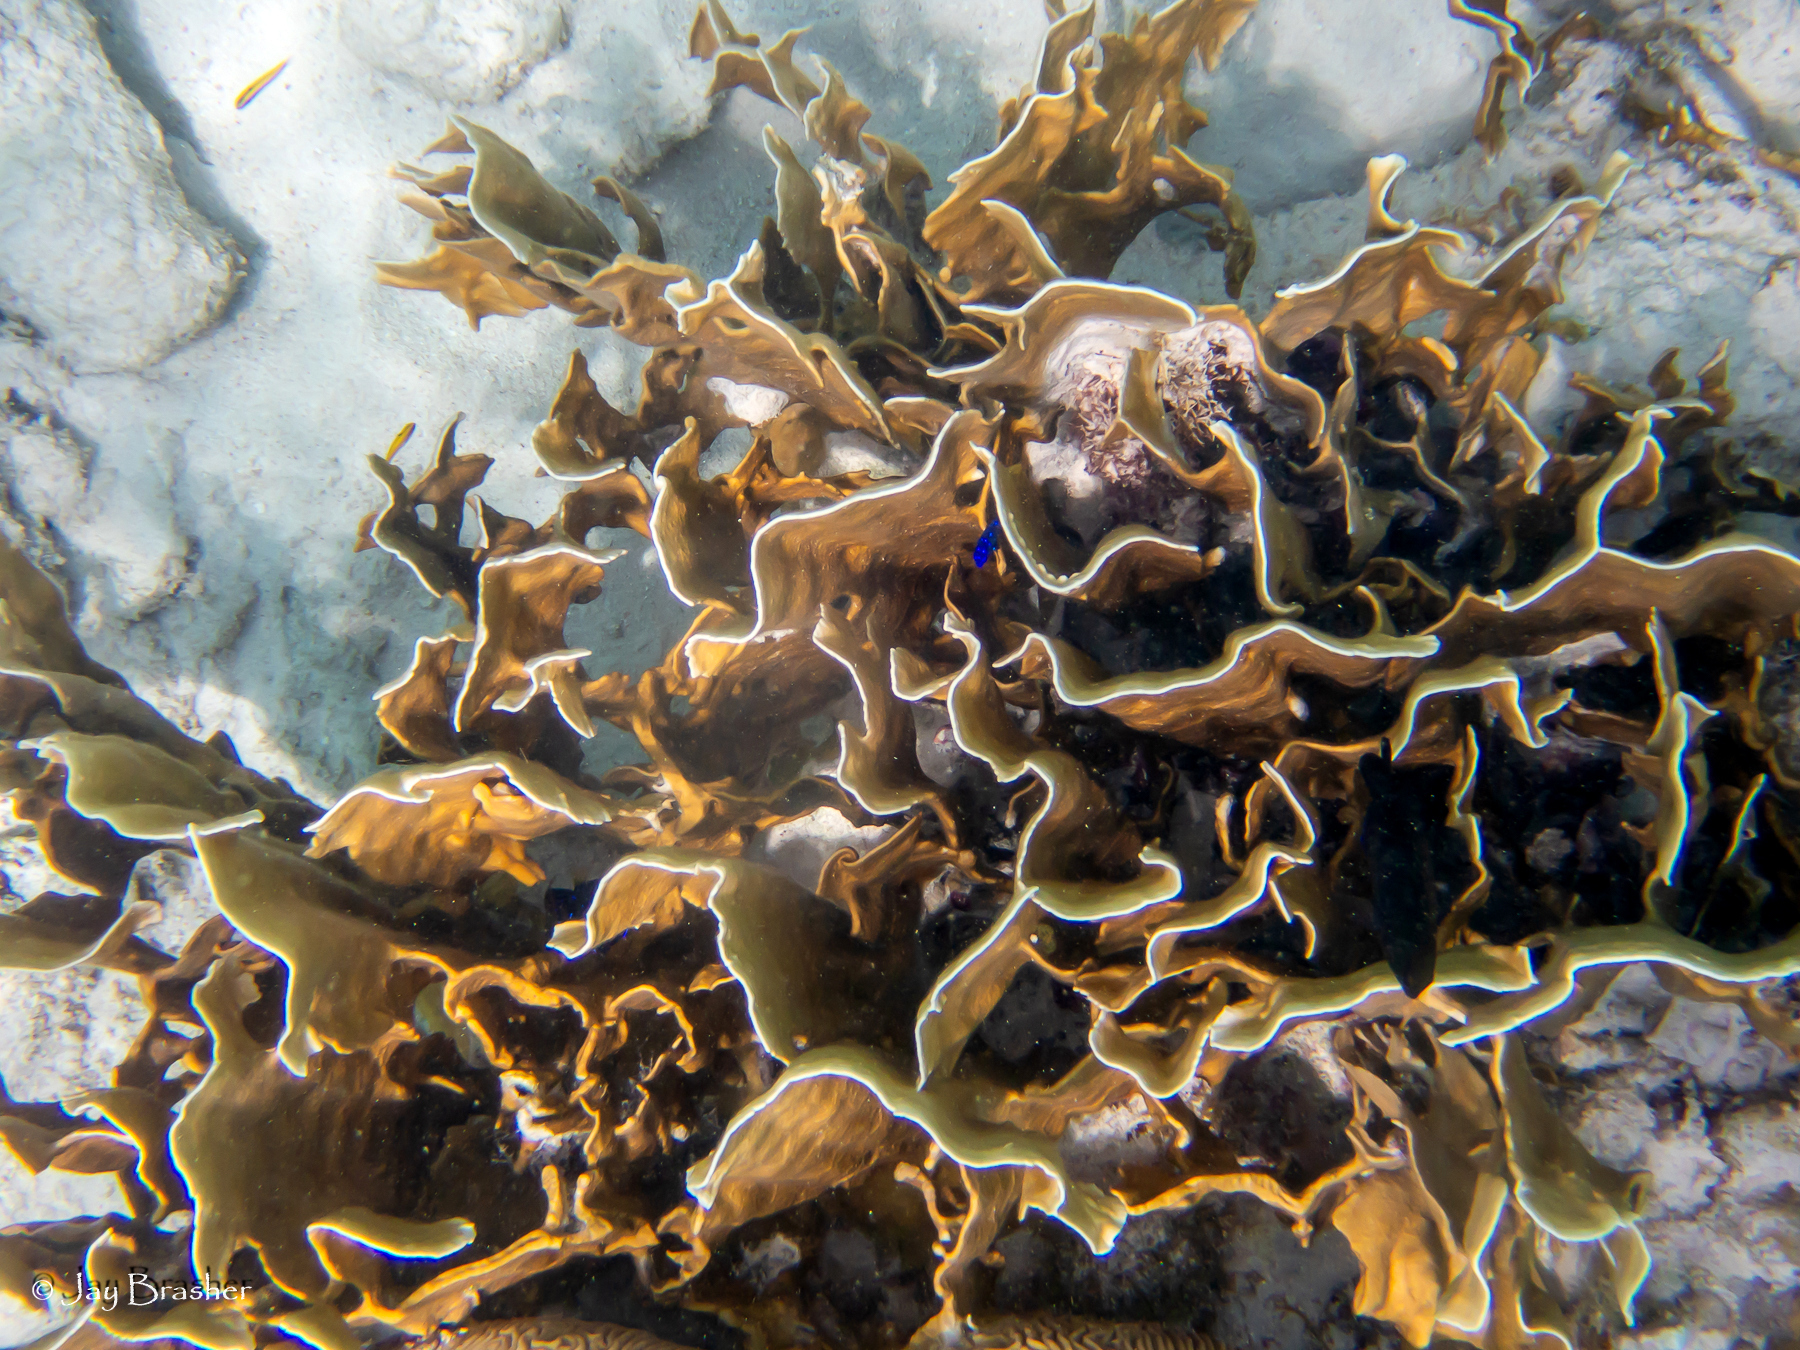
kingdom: Animalia
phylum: Cnidaria
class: Hydrozoa
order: Anthoathecata
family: Milleporidae
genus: Millepora
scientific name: Millepora complanata
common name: Bladed fire coral
